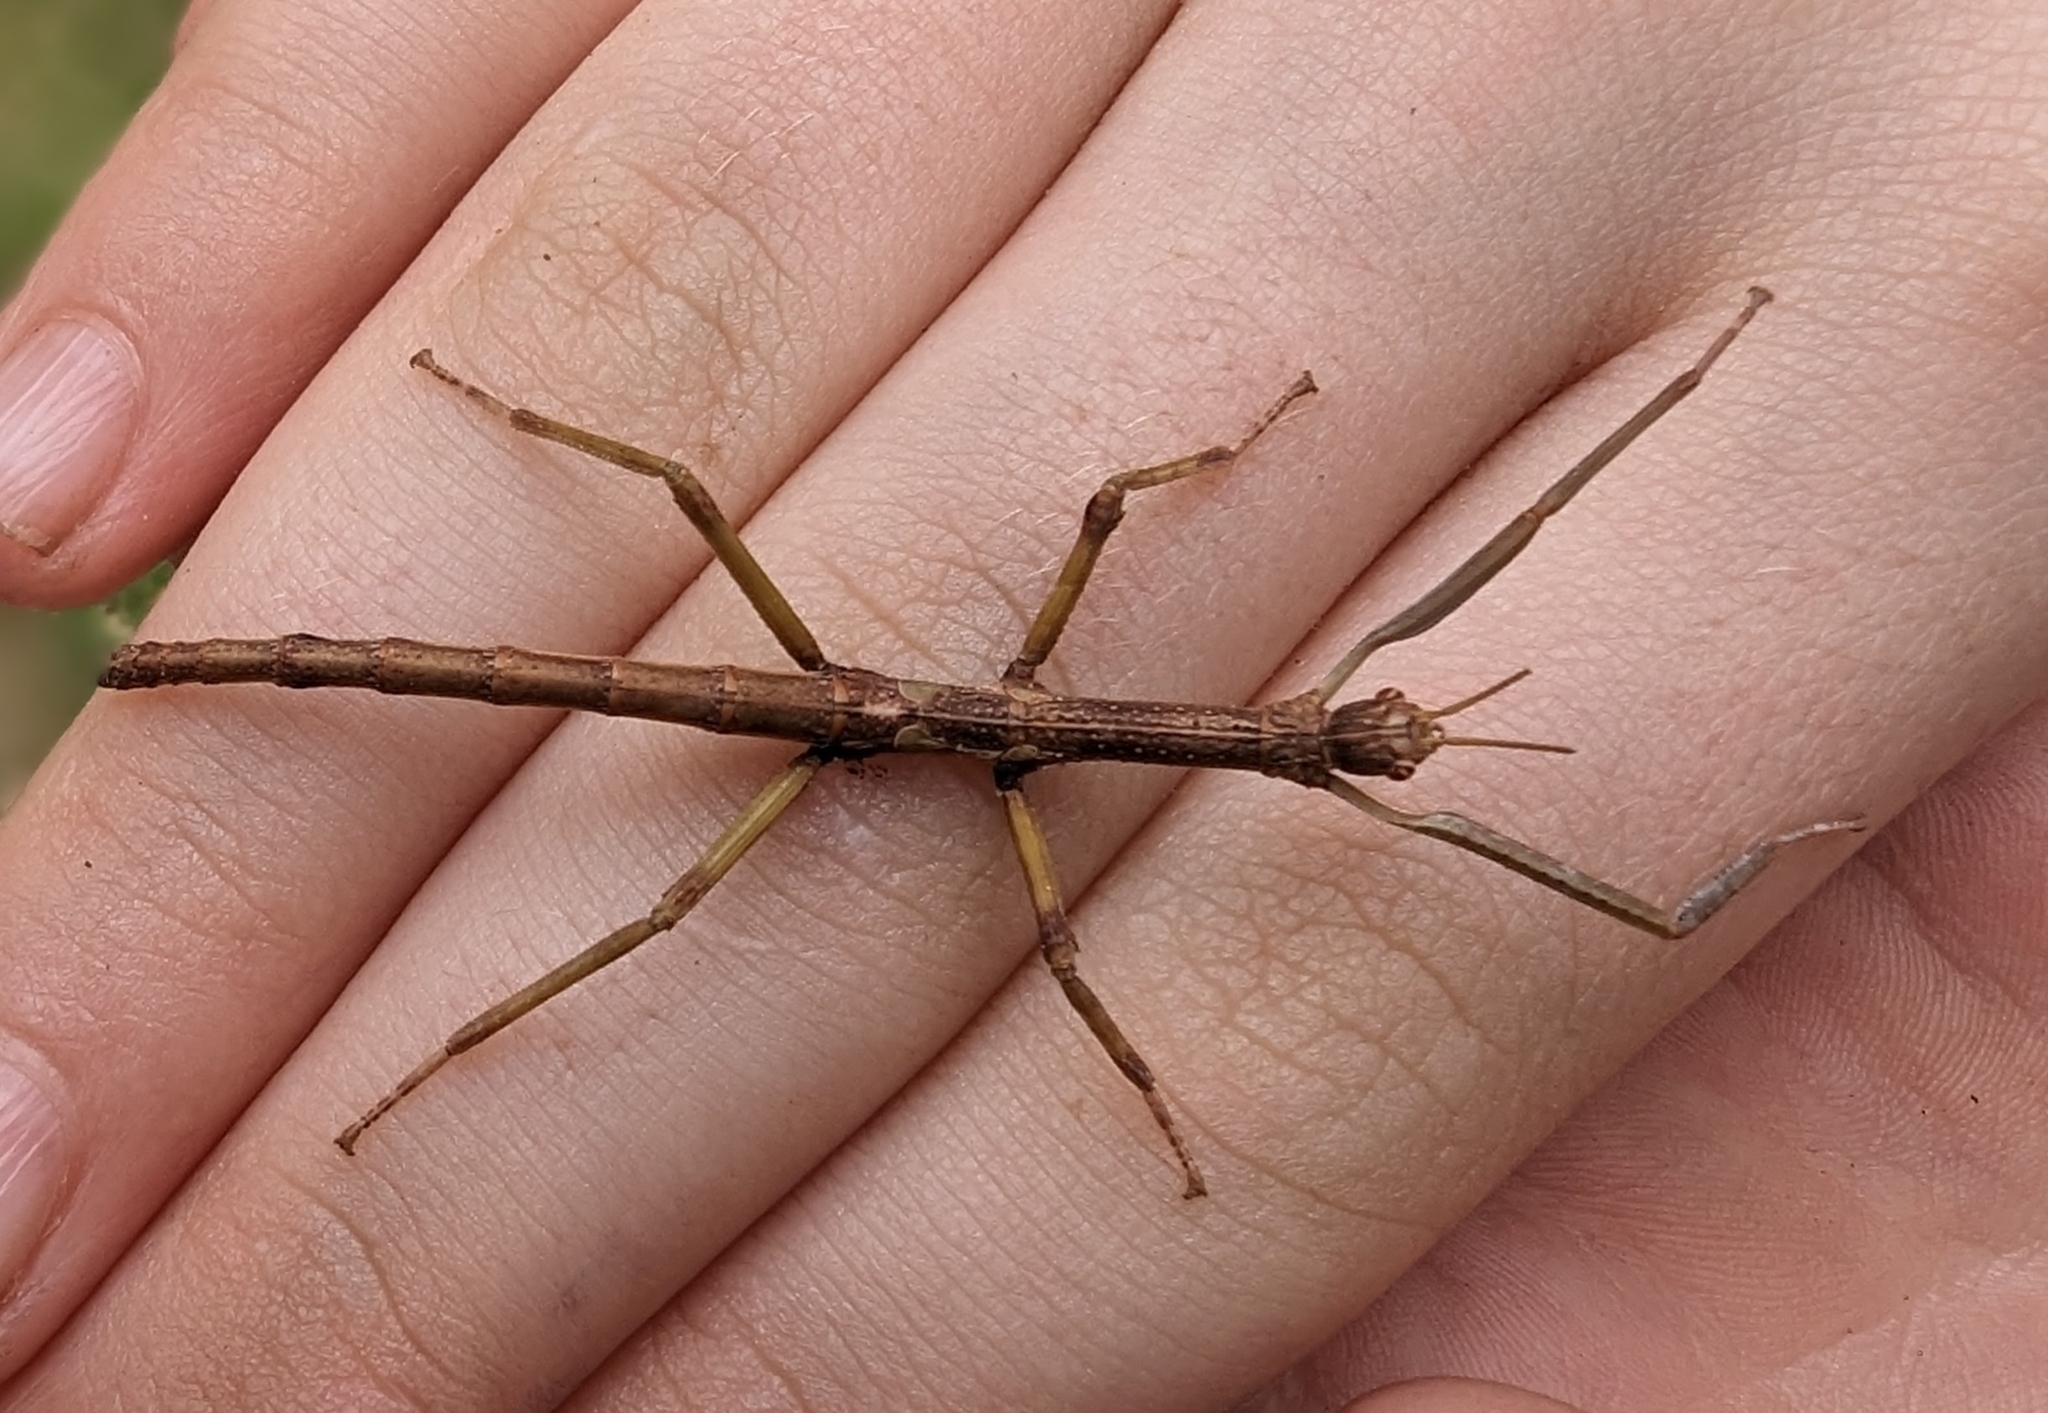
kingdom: Animalia
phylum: Arthropoda
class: Insecta
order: Phasmida
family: Phasmatidae
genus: Anchiale
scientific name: Anchiale briareus
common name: Strong stick insect
